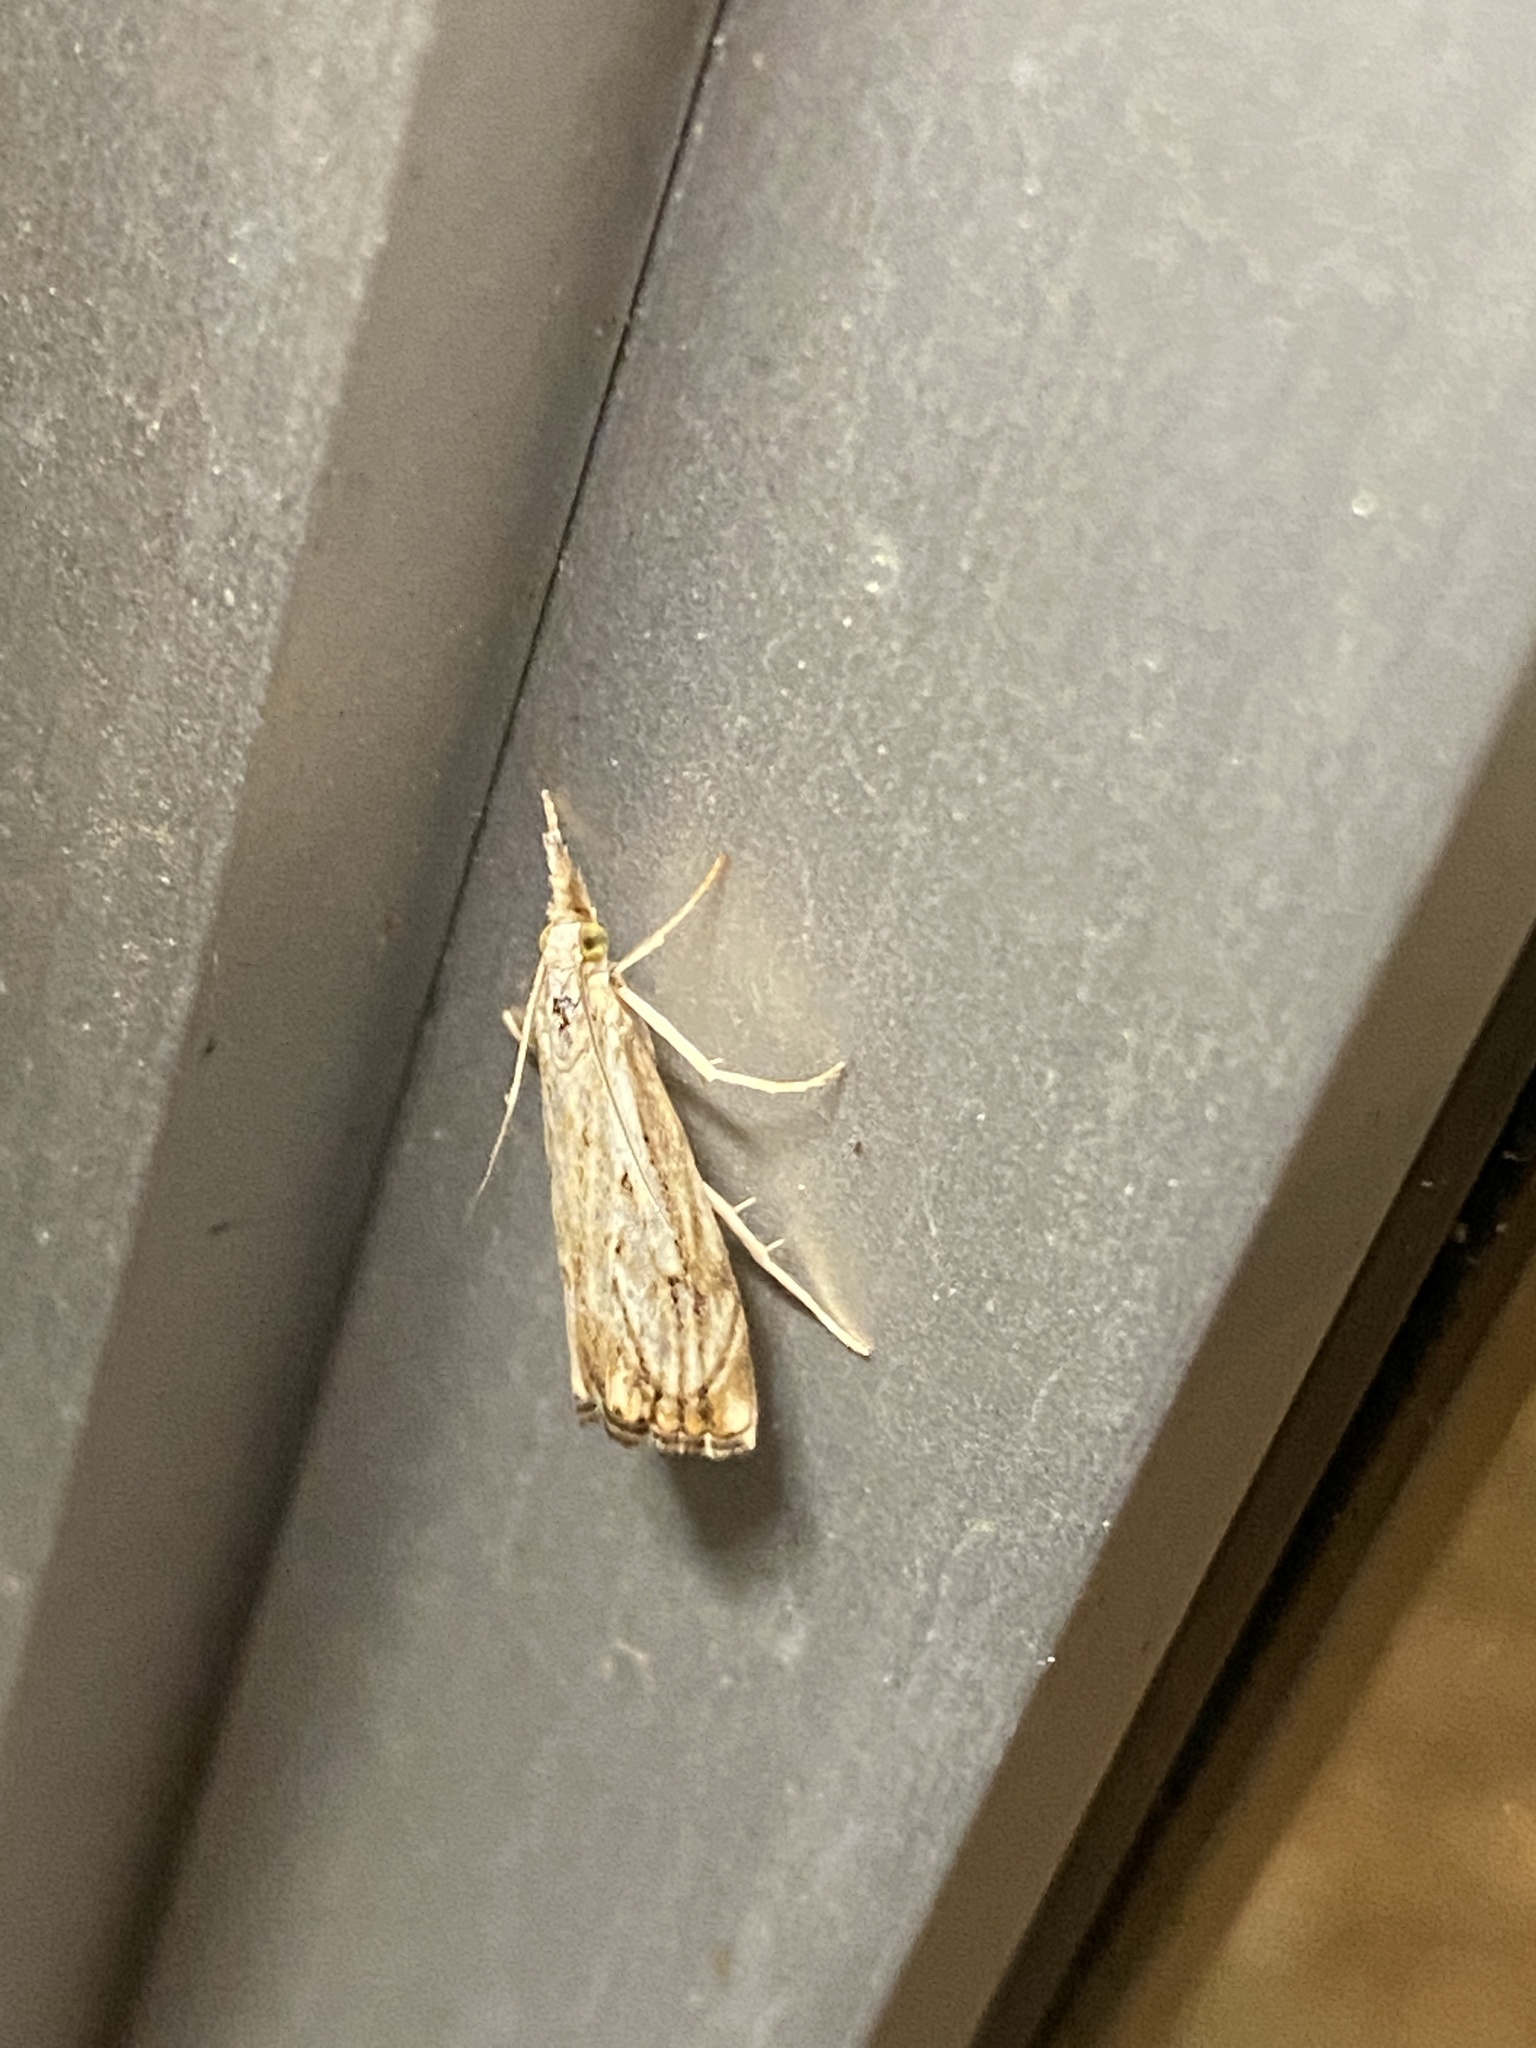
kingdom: Animalia
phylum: Arthropoda
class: Insecta
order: Lepidoptera
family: Crambidae
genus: Catoptria
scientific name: Catoptria falsella
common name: Chequered grass-veneer
